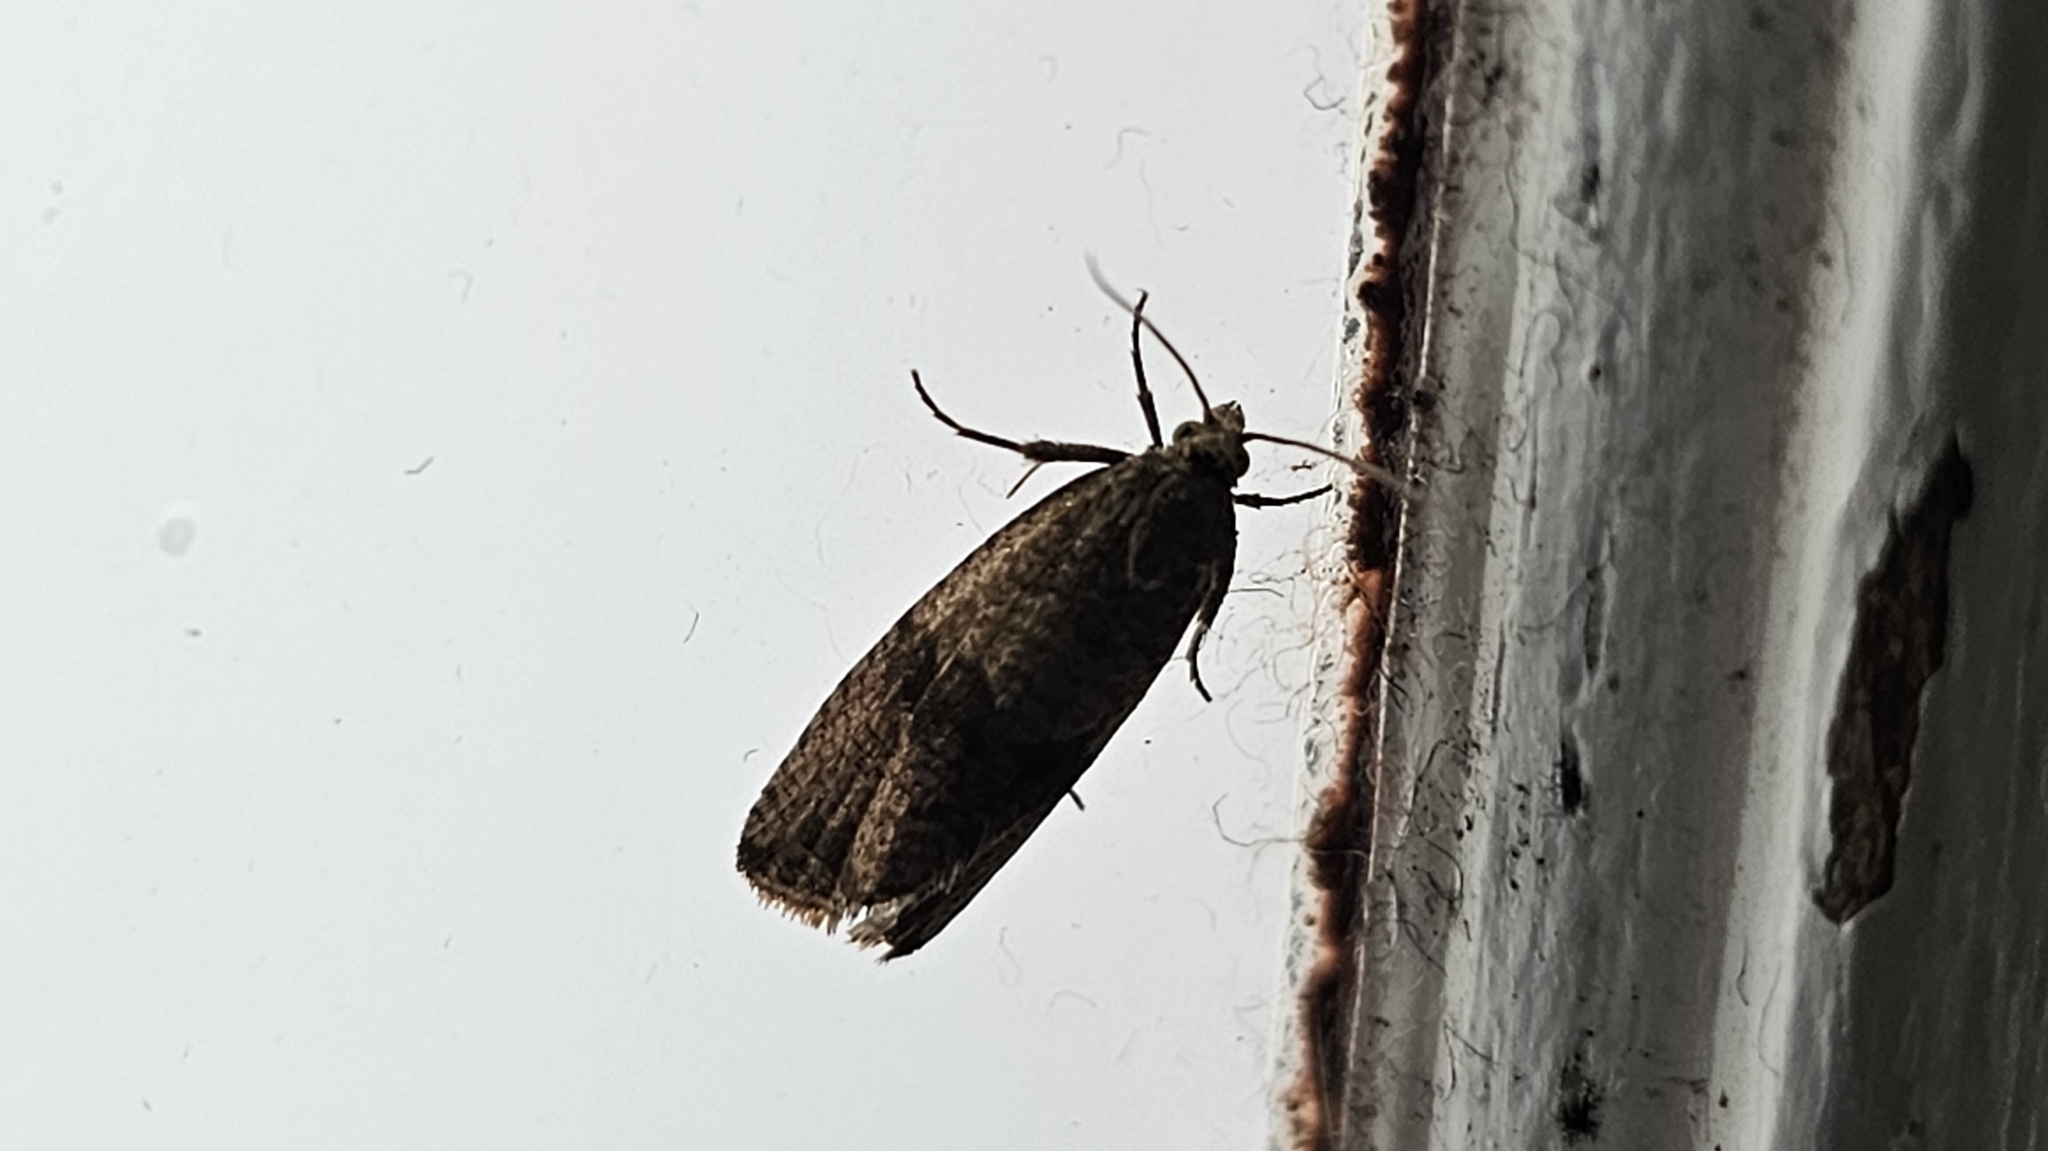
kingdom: Animalia
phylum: Arthropoda
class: Insecta
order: Lepidoptera
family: Tortricidae
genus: Celypha
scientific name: Celypha striana
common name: Barred marble
